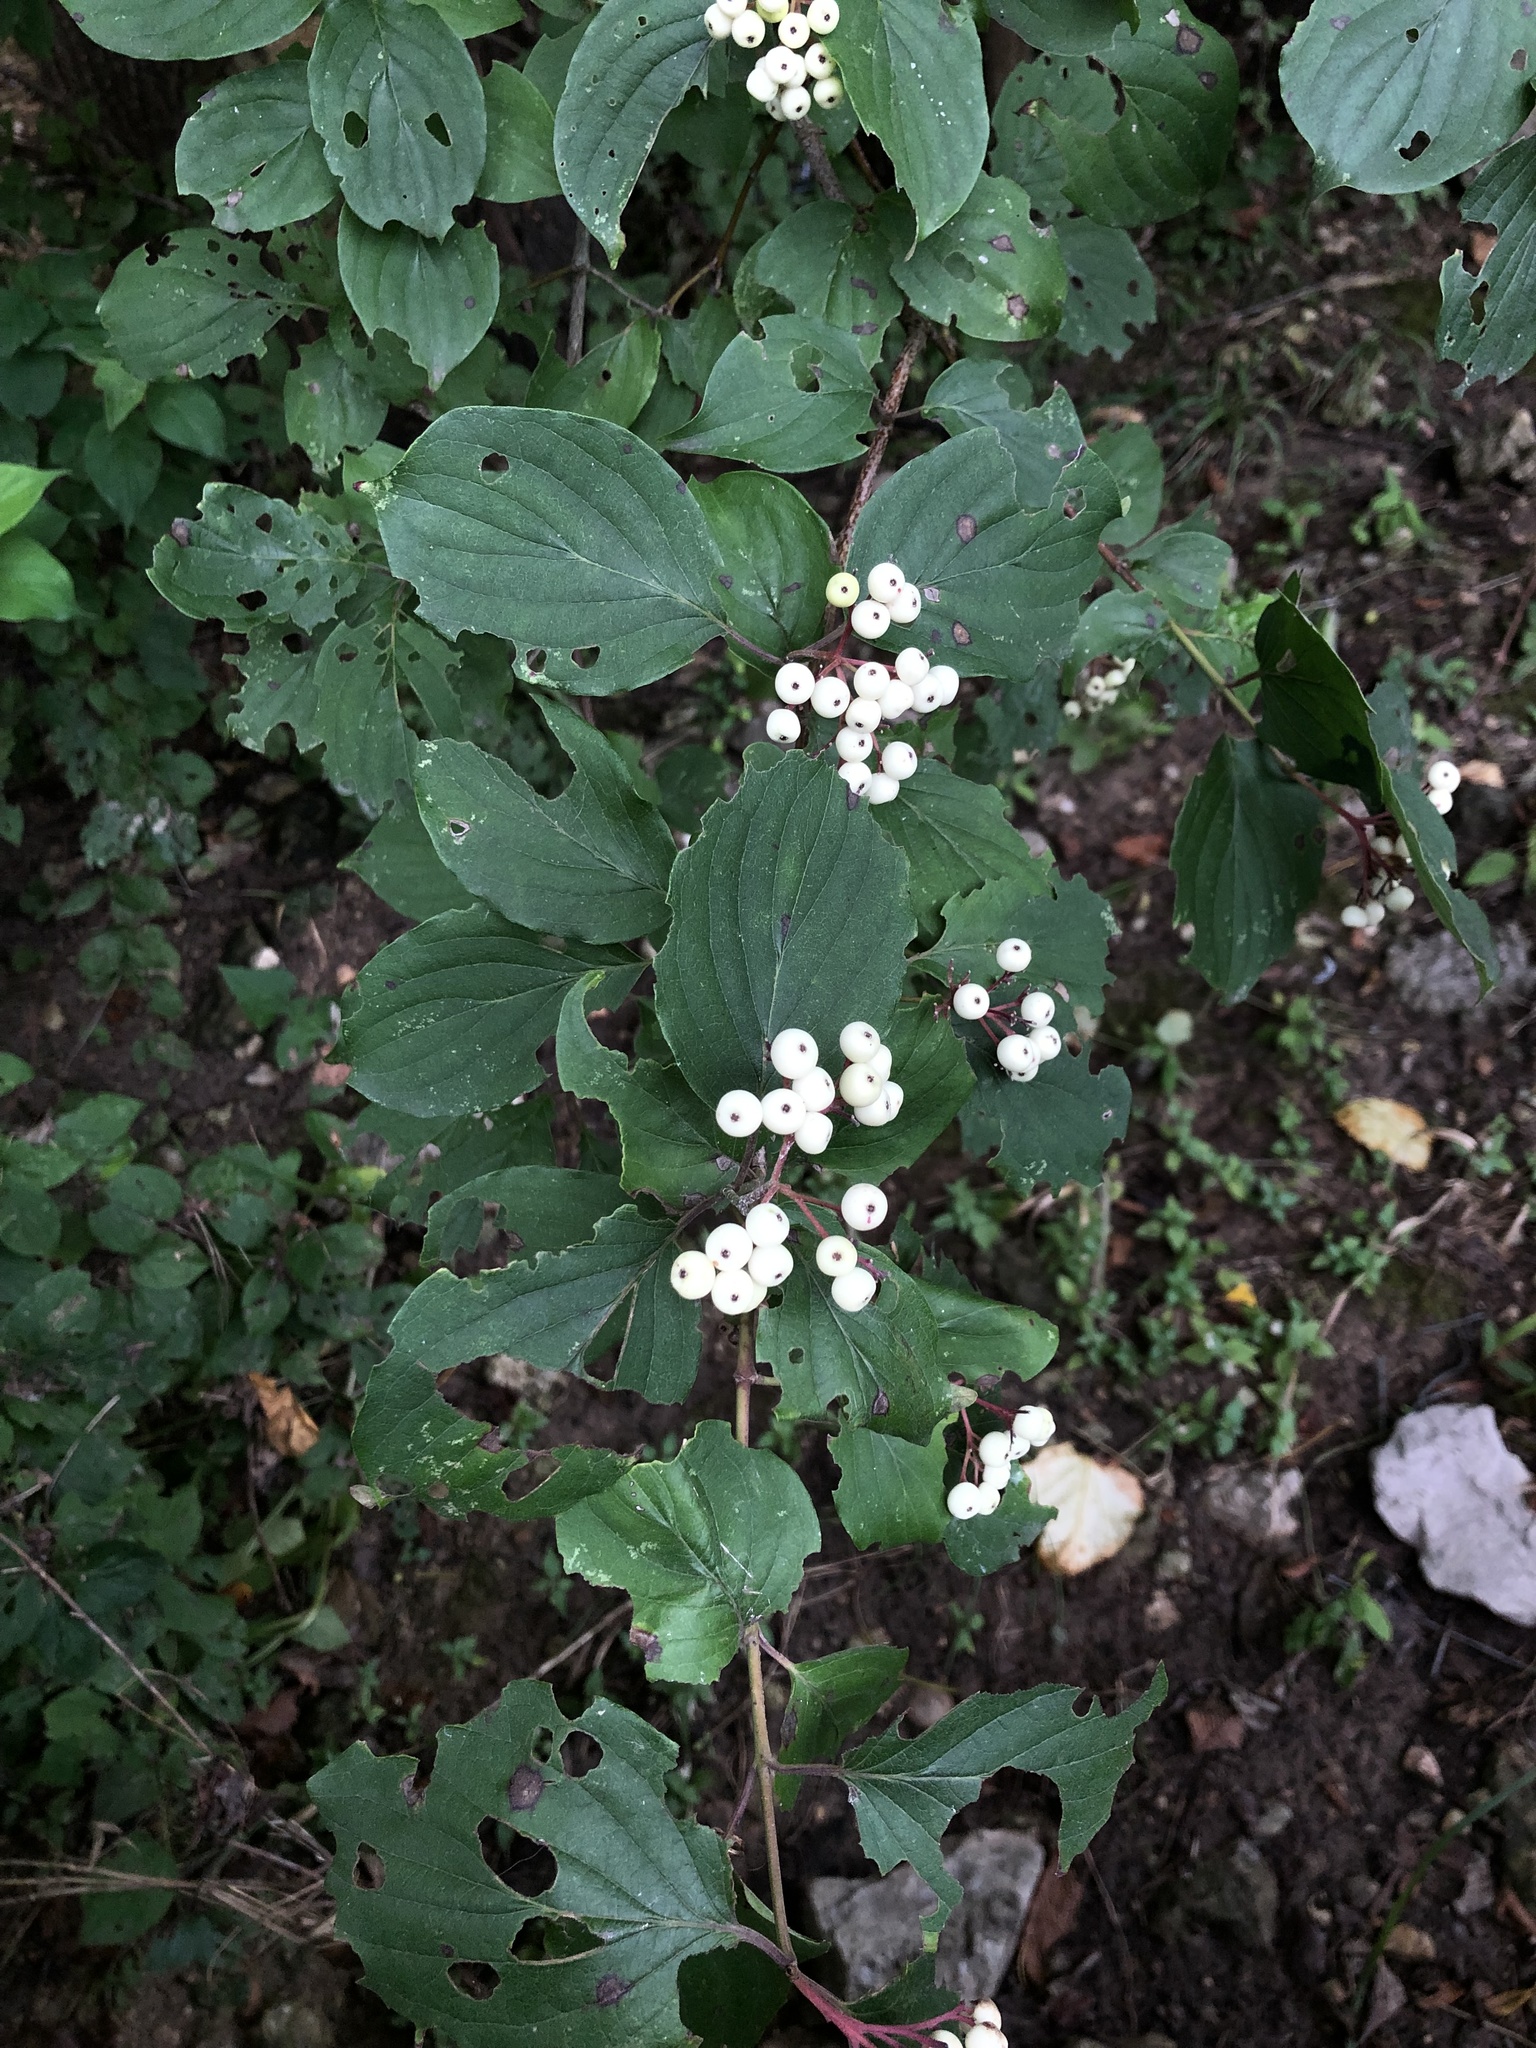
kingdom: Plantae
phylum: Tracheophyta
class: Magnoliopsida
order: Cornales
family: Cornaceae
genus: Cornus
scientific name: Cornus drummondii
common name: Rough-leaf dogwood
